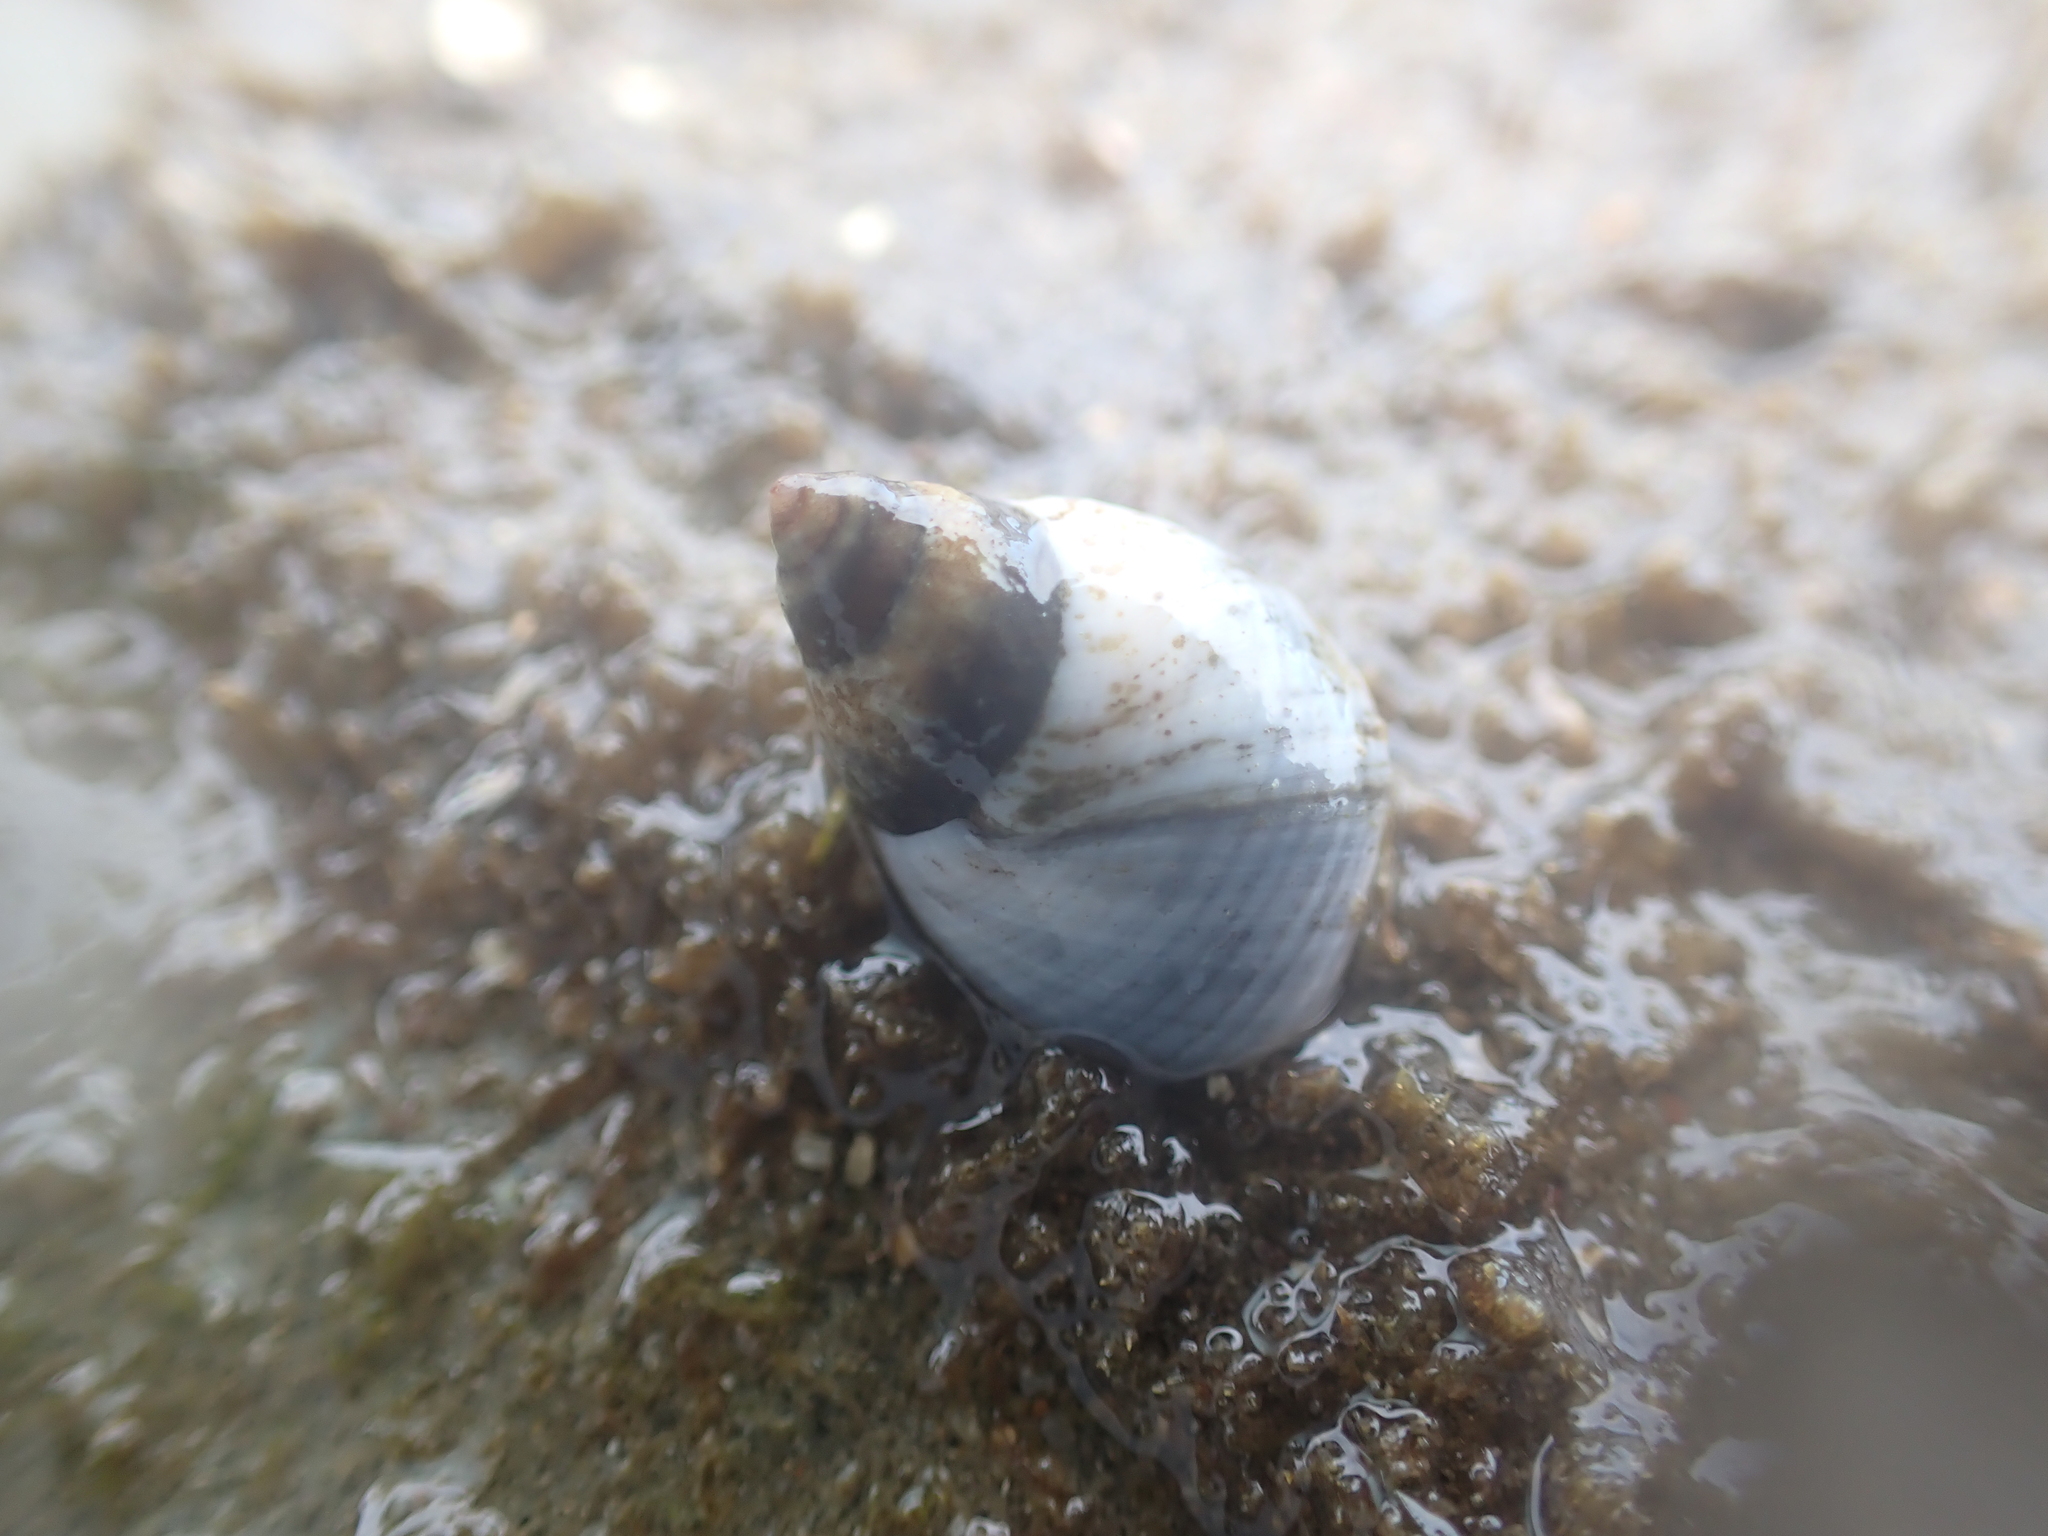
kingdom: Animalia
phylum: Mollusca
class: Gastropoda
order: Littorinimorpha
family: Littorinidae
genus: Austrolittorina
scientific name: Austrolittorina unifasciata
